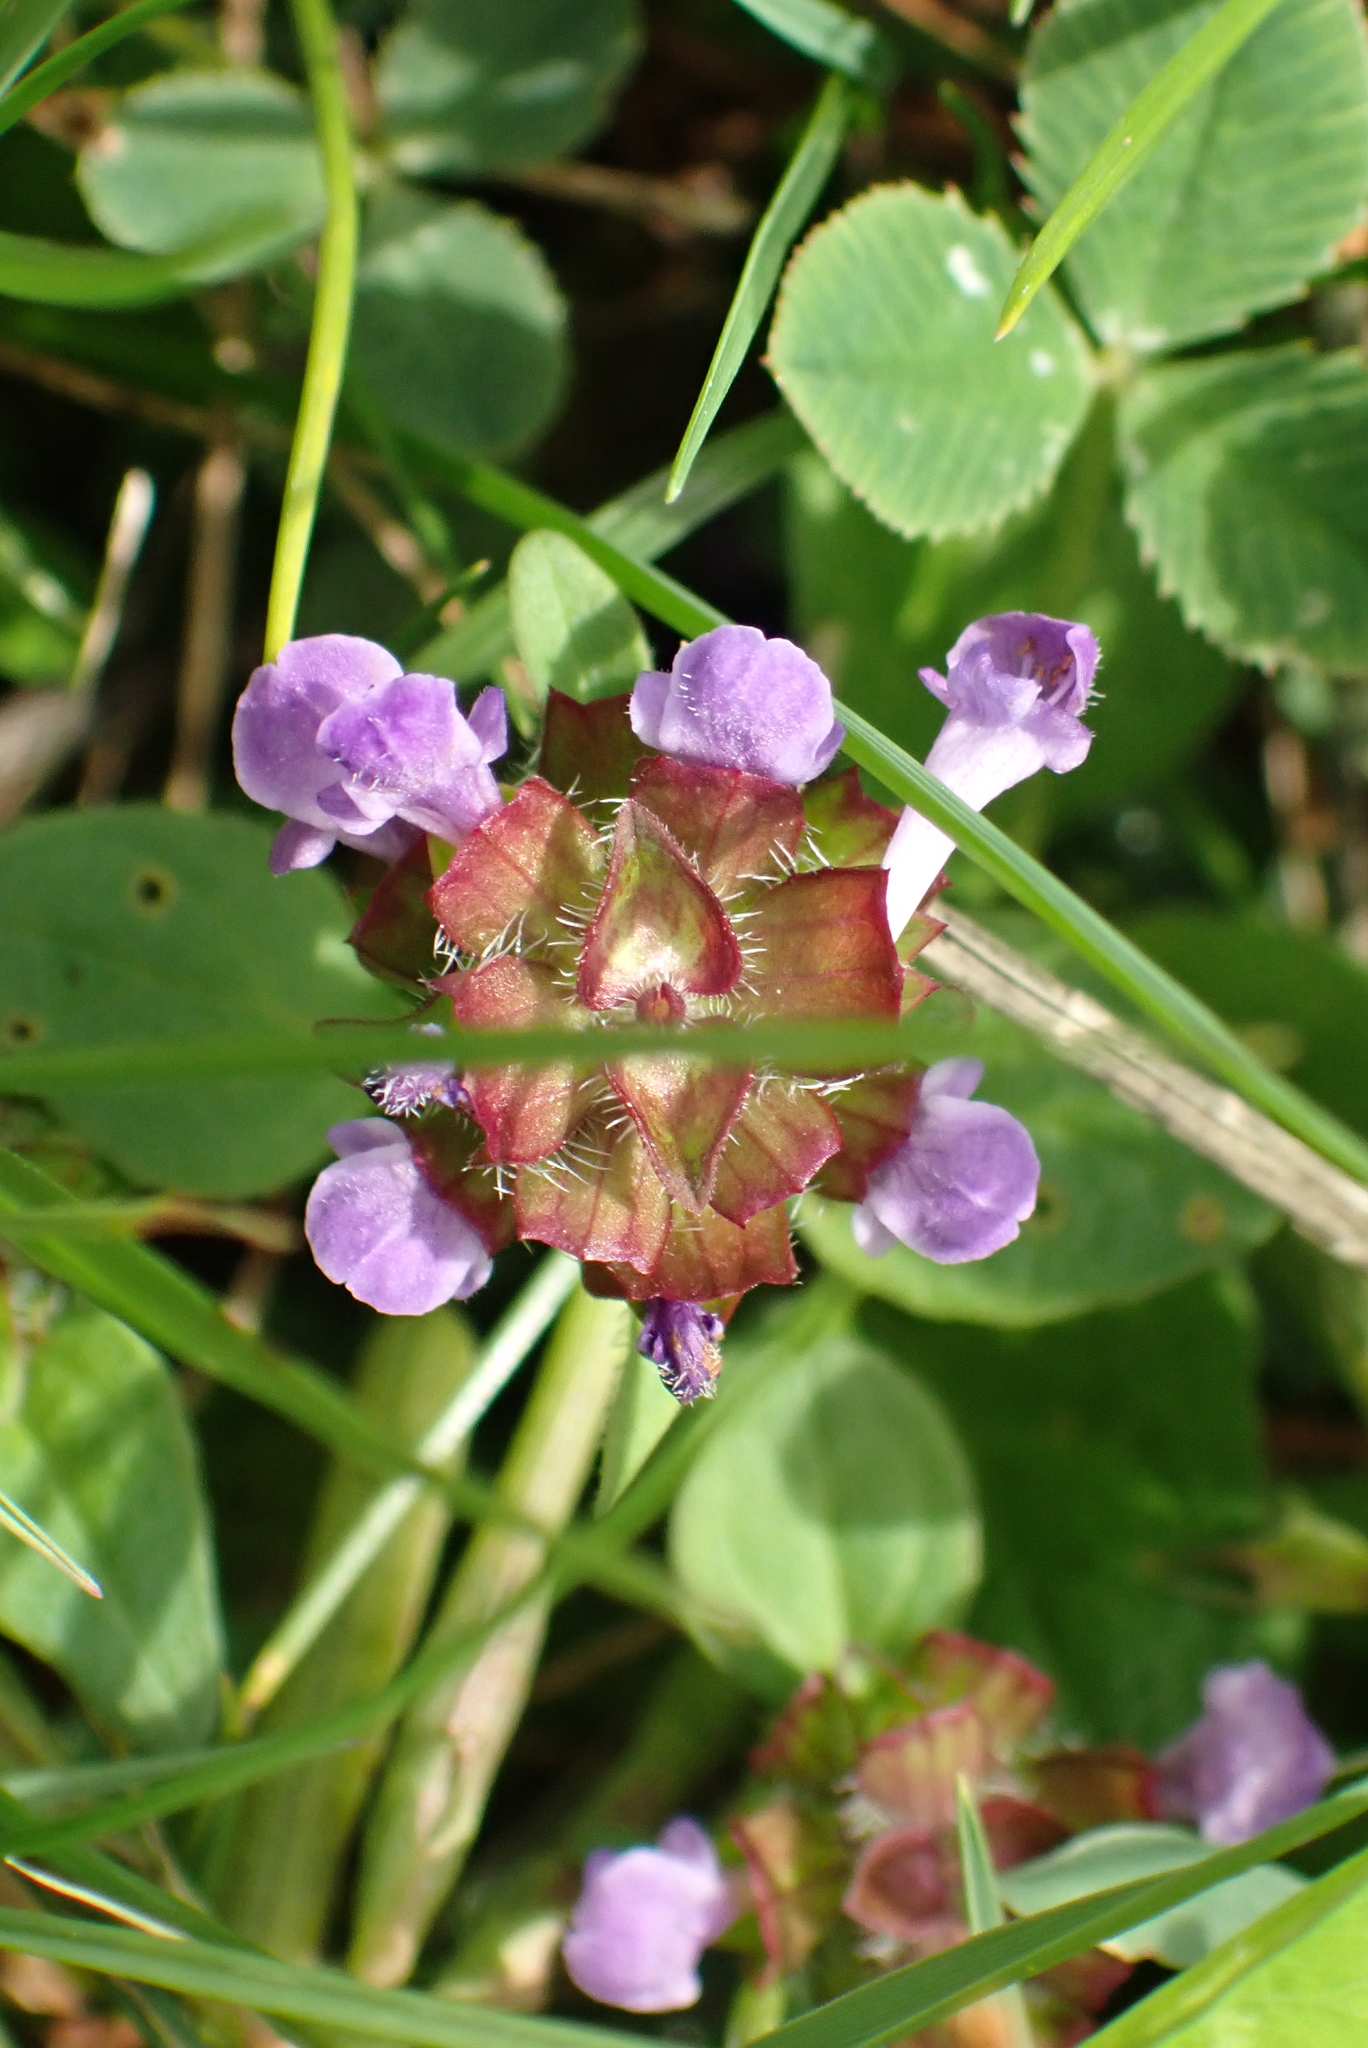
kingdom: Plantae
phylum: Tracheophyta
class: Magnoliopsida
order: Lamiales
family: Lamiaceae
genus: Prunella
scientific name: Prunella vulgaris
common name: Heal-all
